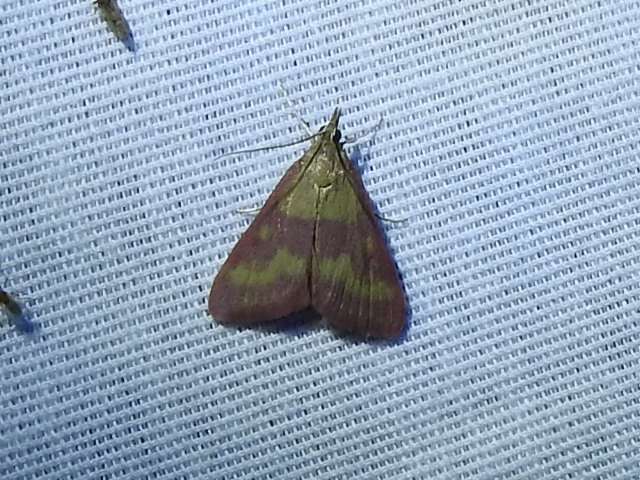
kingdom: Animalia
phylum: Arthropoda
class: Insecta
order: Lepidoptera
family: Crambidae
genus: Pyrausta
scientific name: Pyrausta laticlavia
